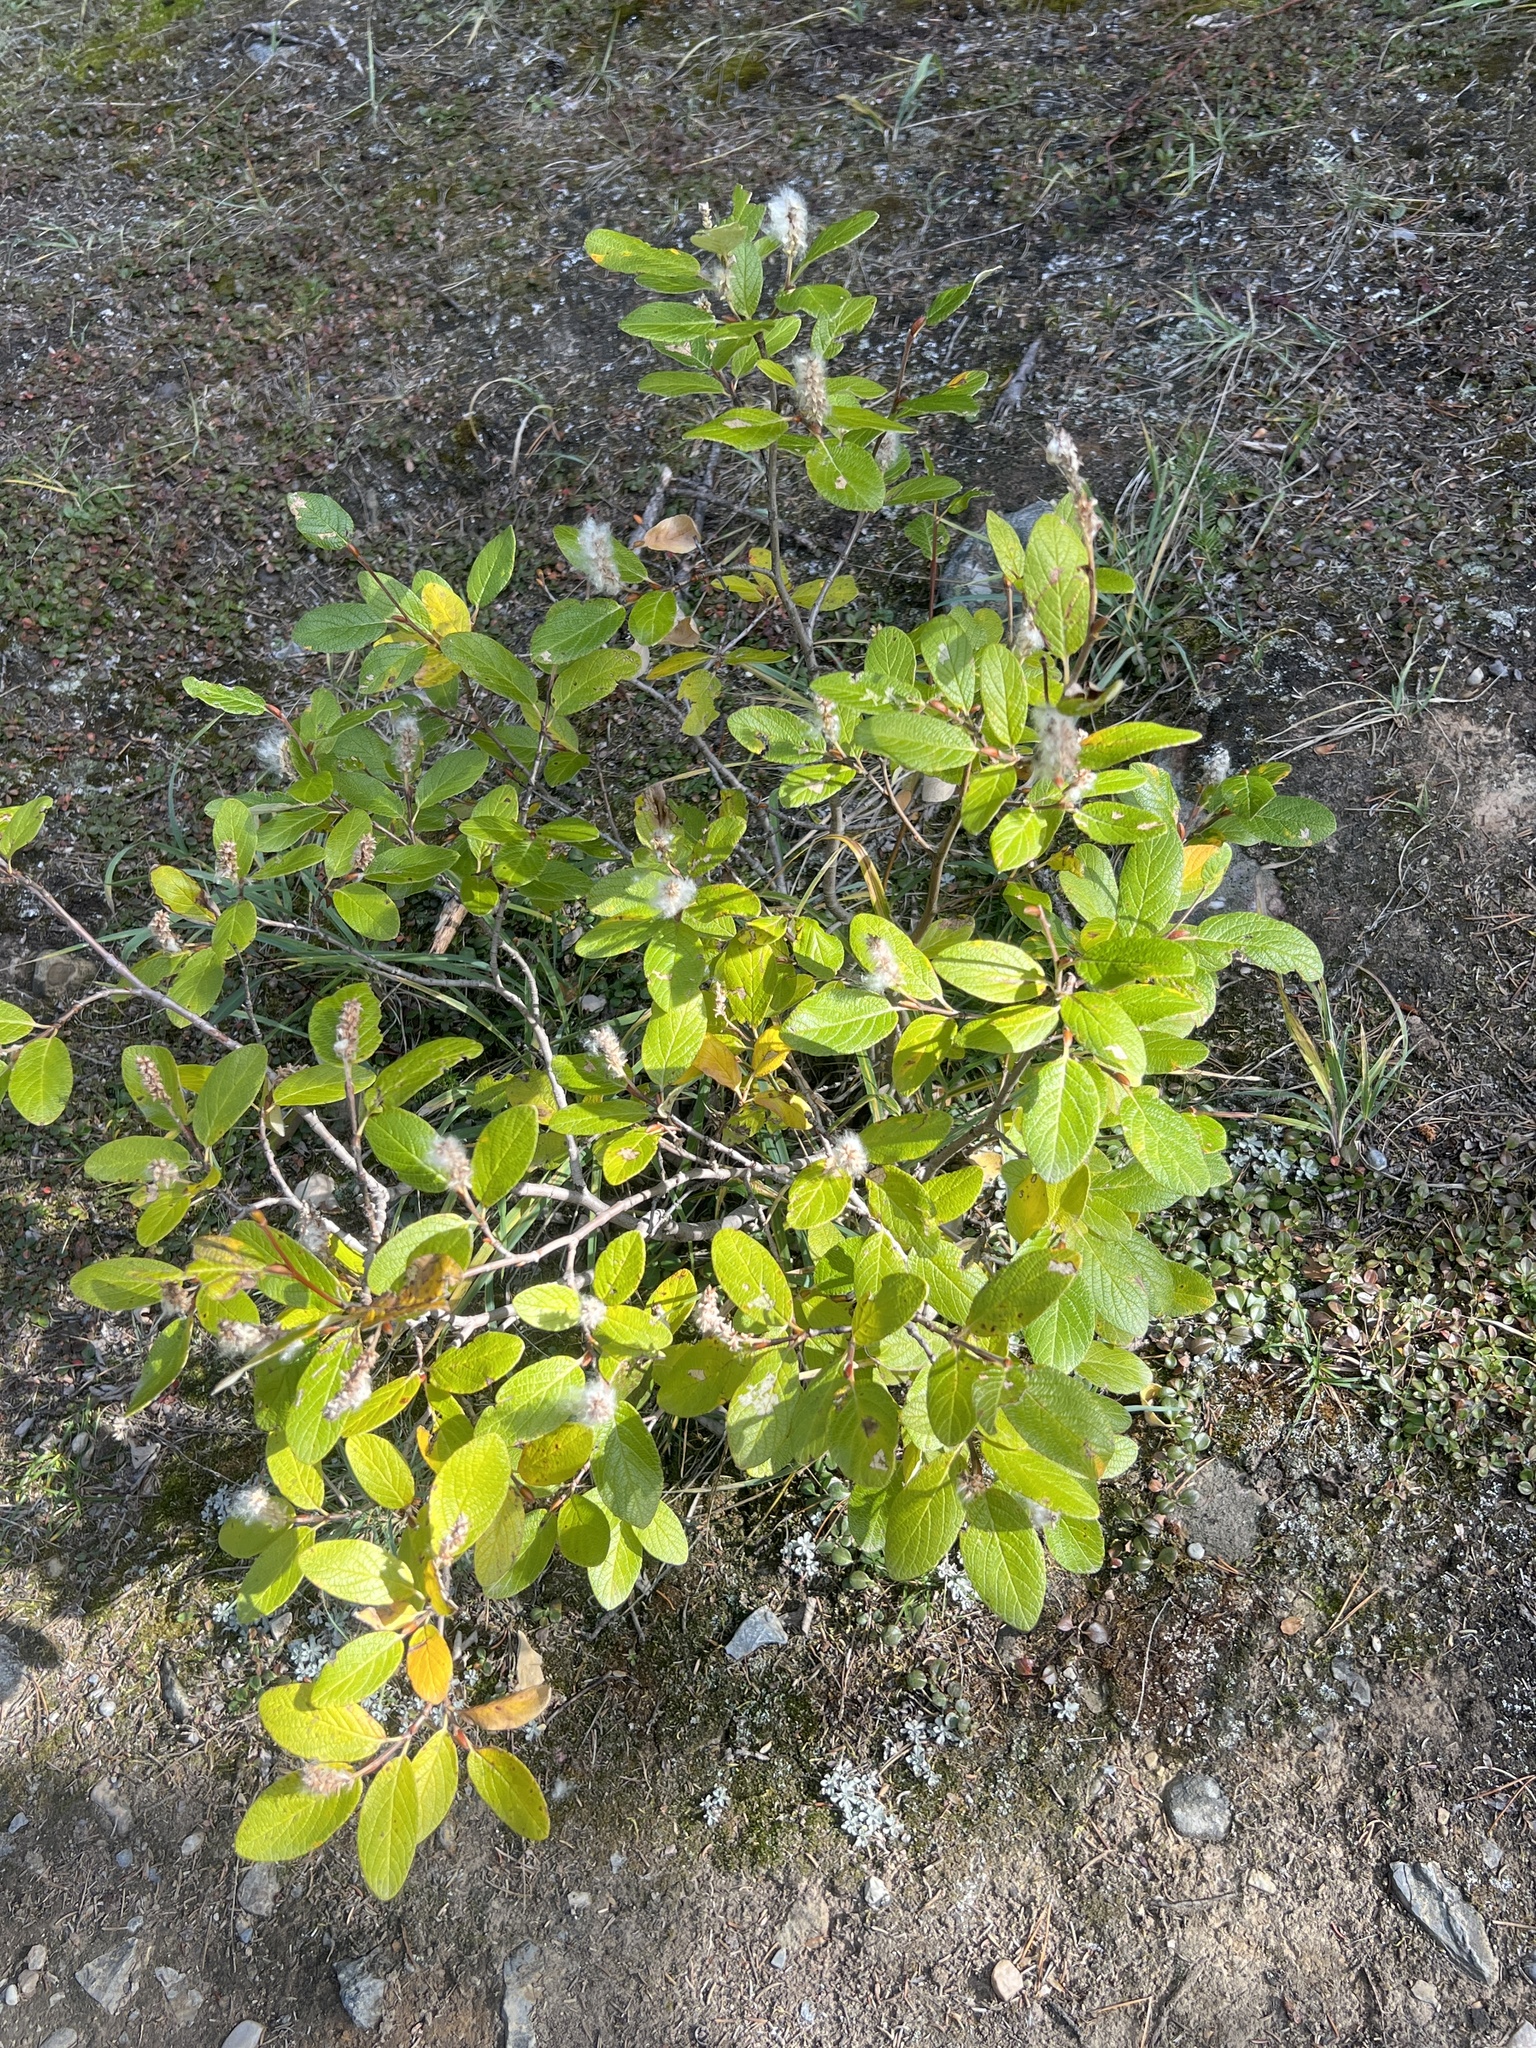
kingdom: Plantae
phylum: Tracheophyta
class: Magnoliopsida
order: Malpighiales
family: Salicaceae
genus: Salix
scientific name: Salix vestita
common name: Hairy willow
